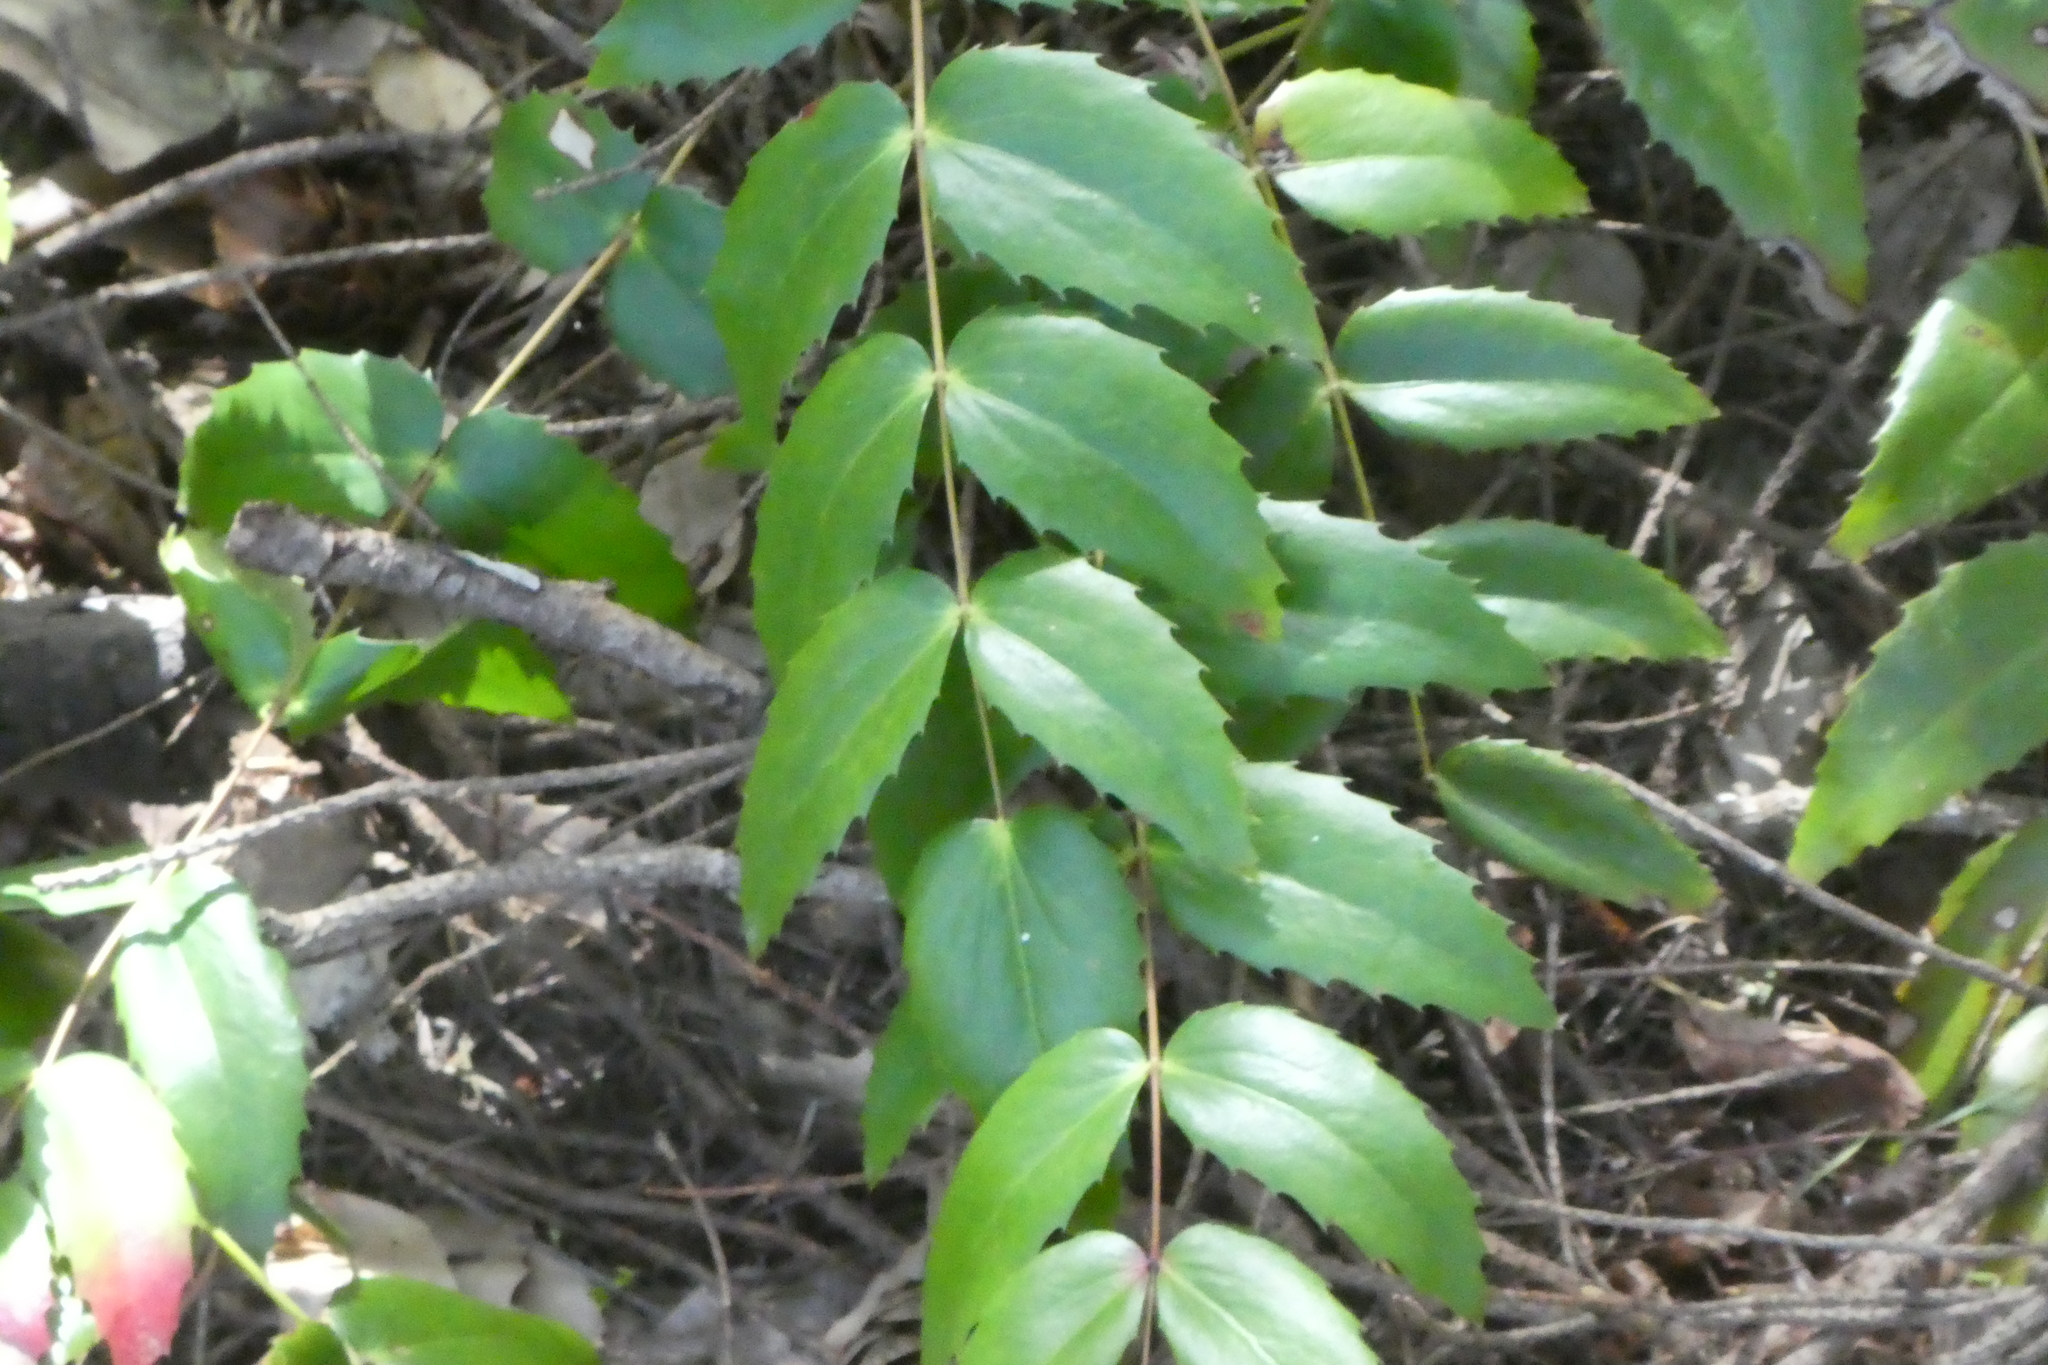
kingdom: Plantae
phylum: Tracheophyta
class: Magnoliopsida
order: Ranunculales
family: Berberidaceae
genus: Mahonia
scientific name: Mahonia nervosa
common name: Cascade oregon-grape
